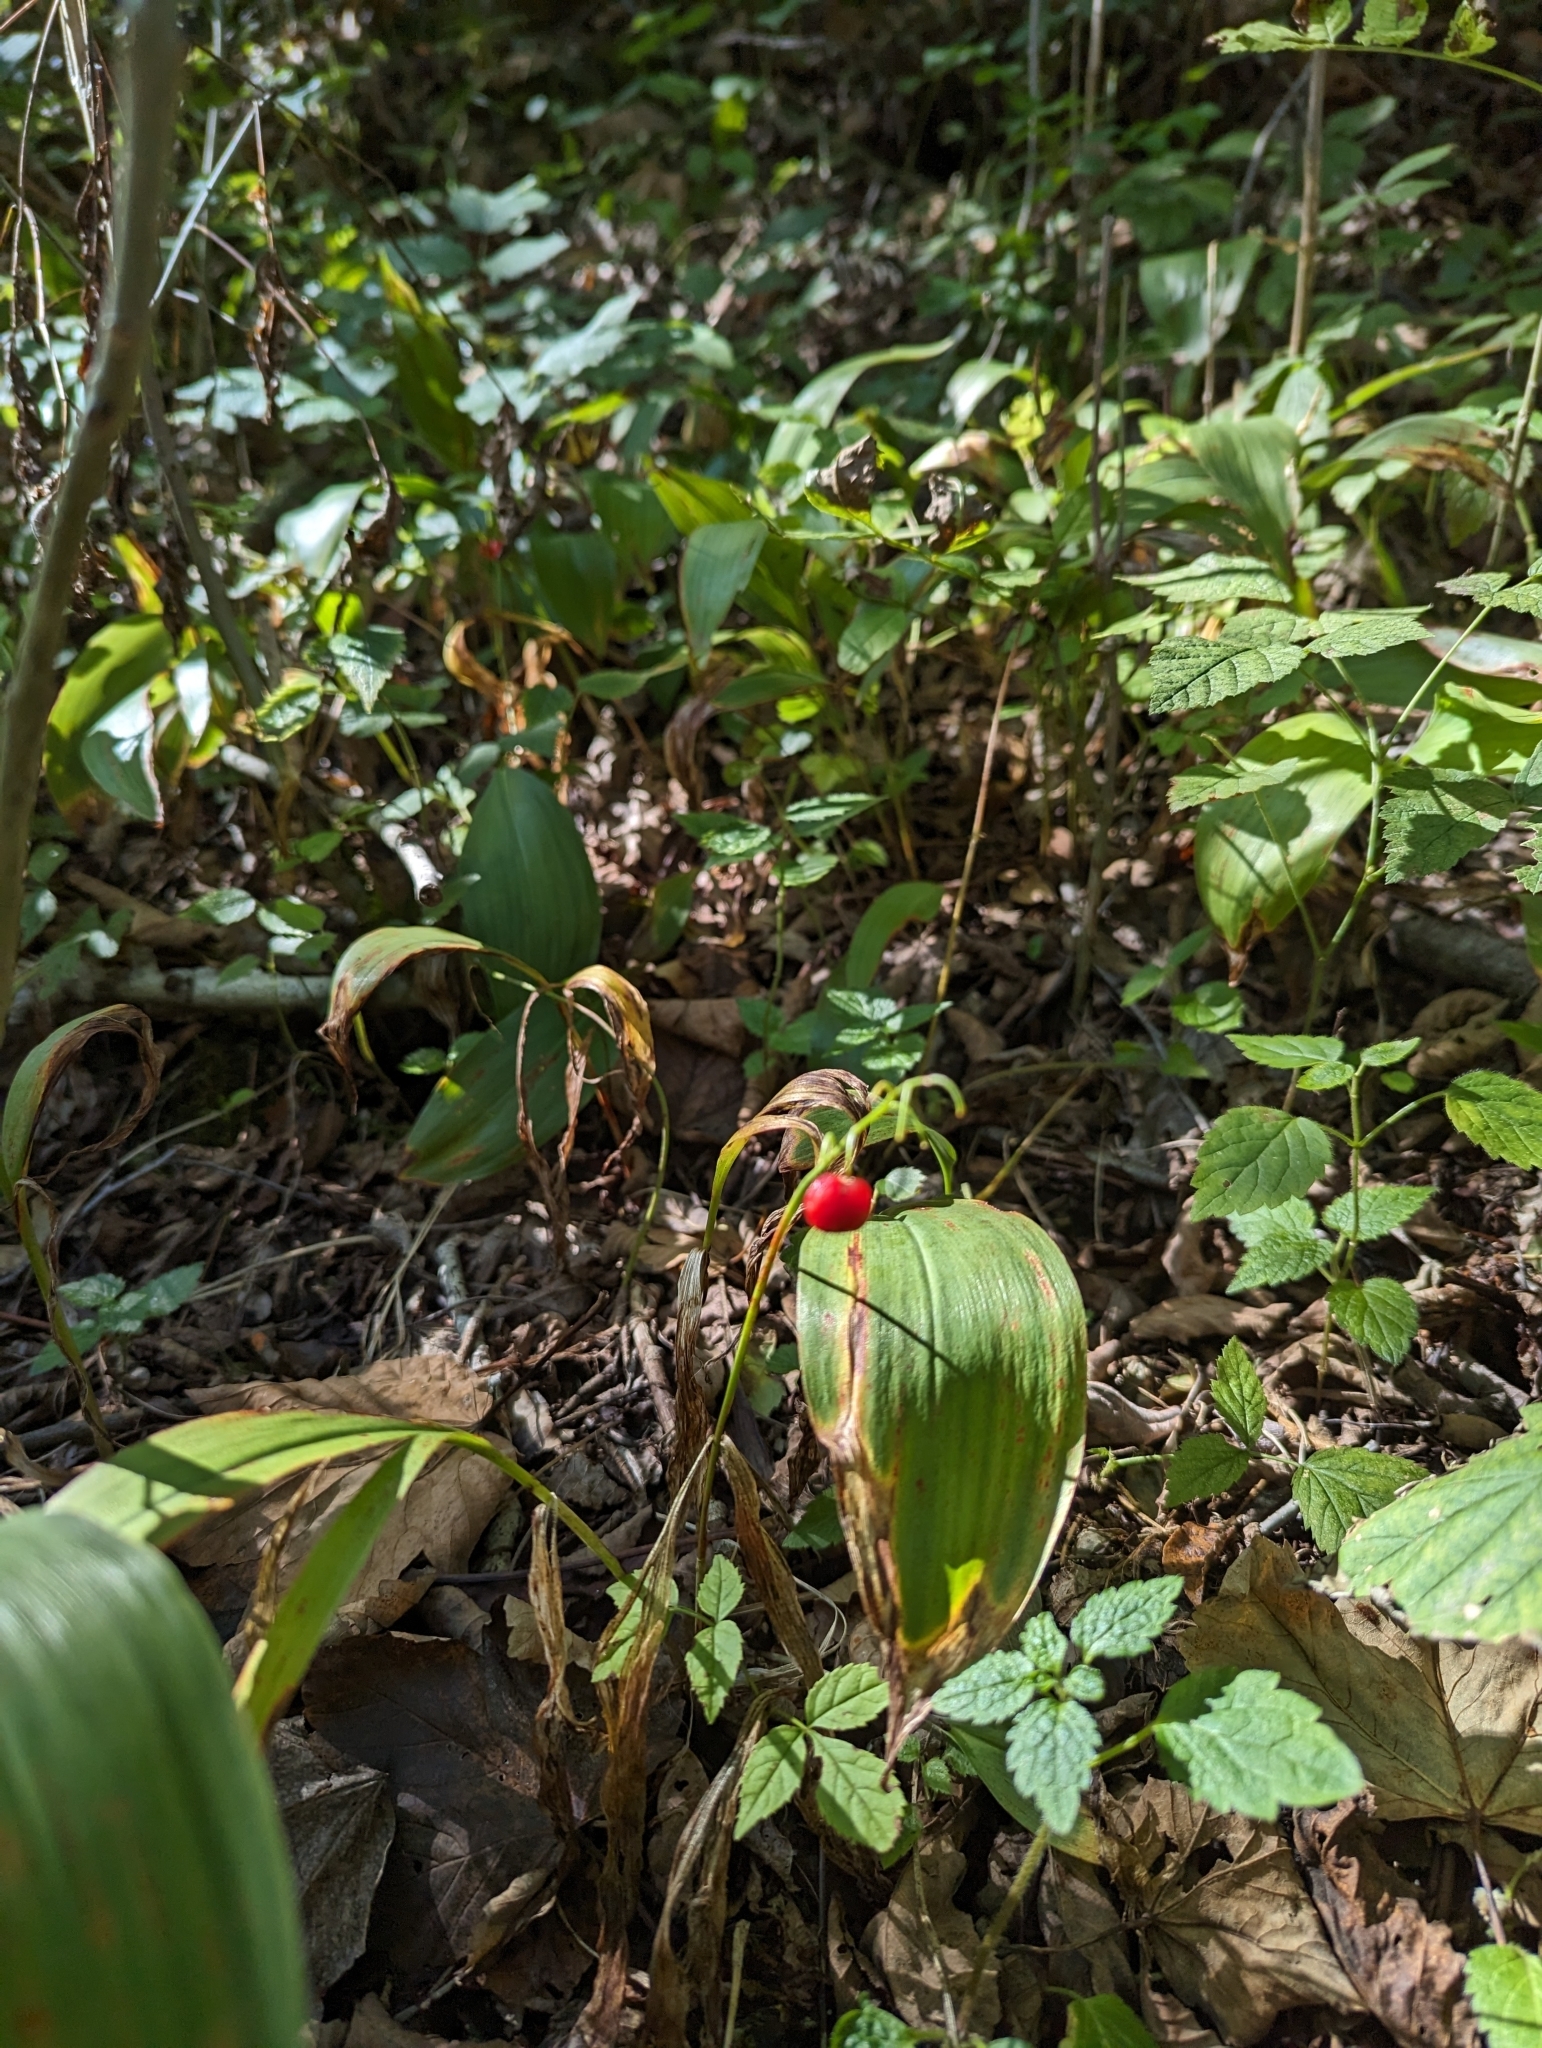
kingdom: Plantae
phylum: Tracheophyta
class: Liliopsida
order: Asparagales
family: Asparagaceae
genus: Convallaria
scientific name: Convallaria majalis
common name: Lily-of-the-valley
